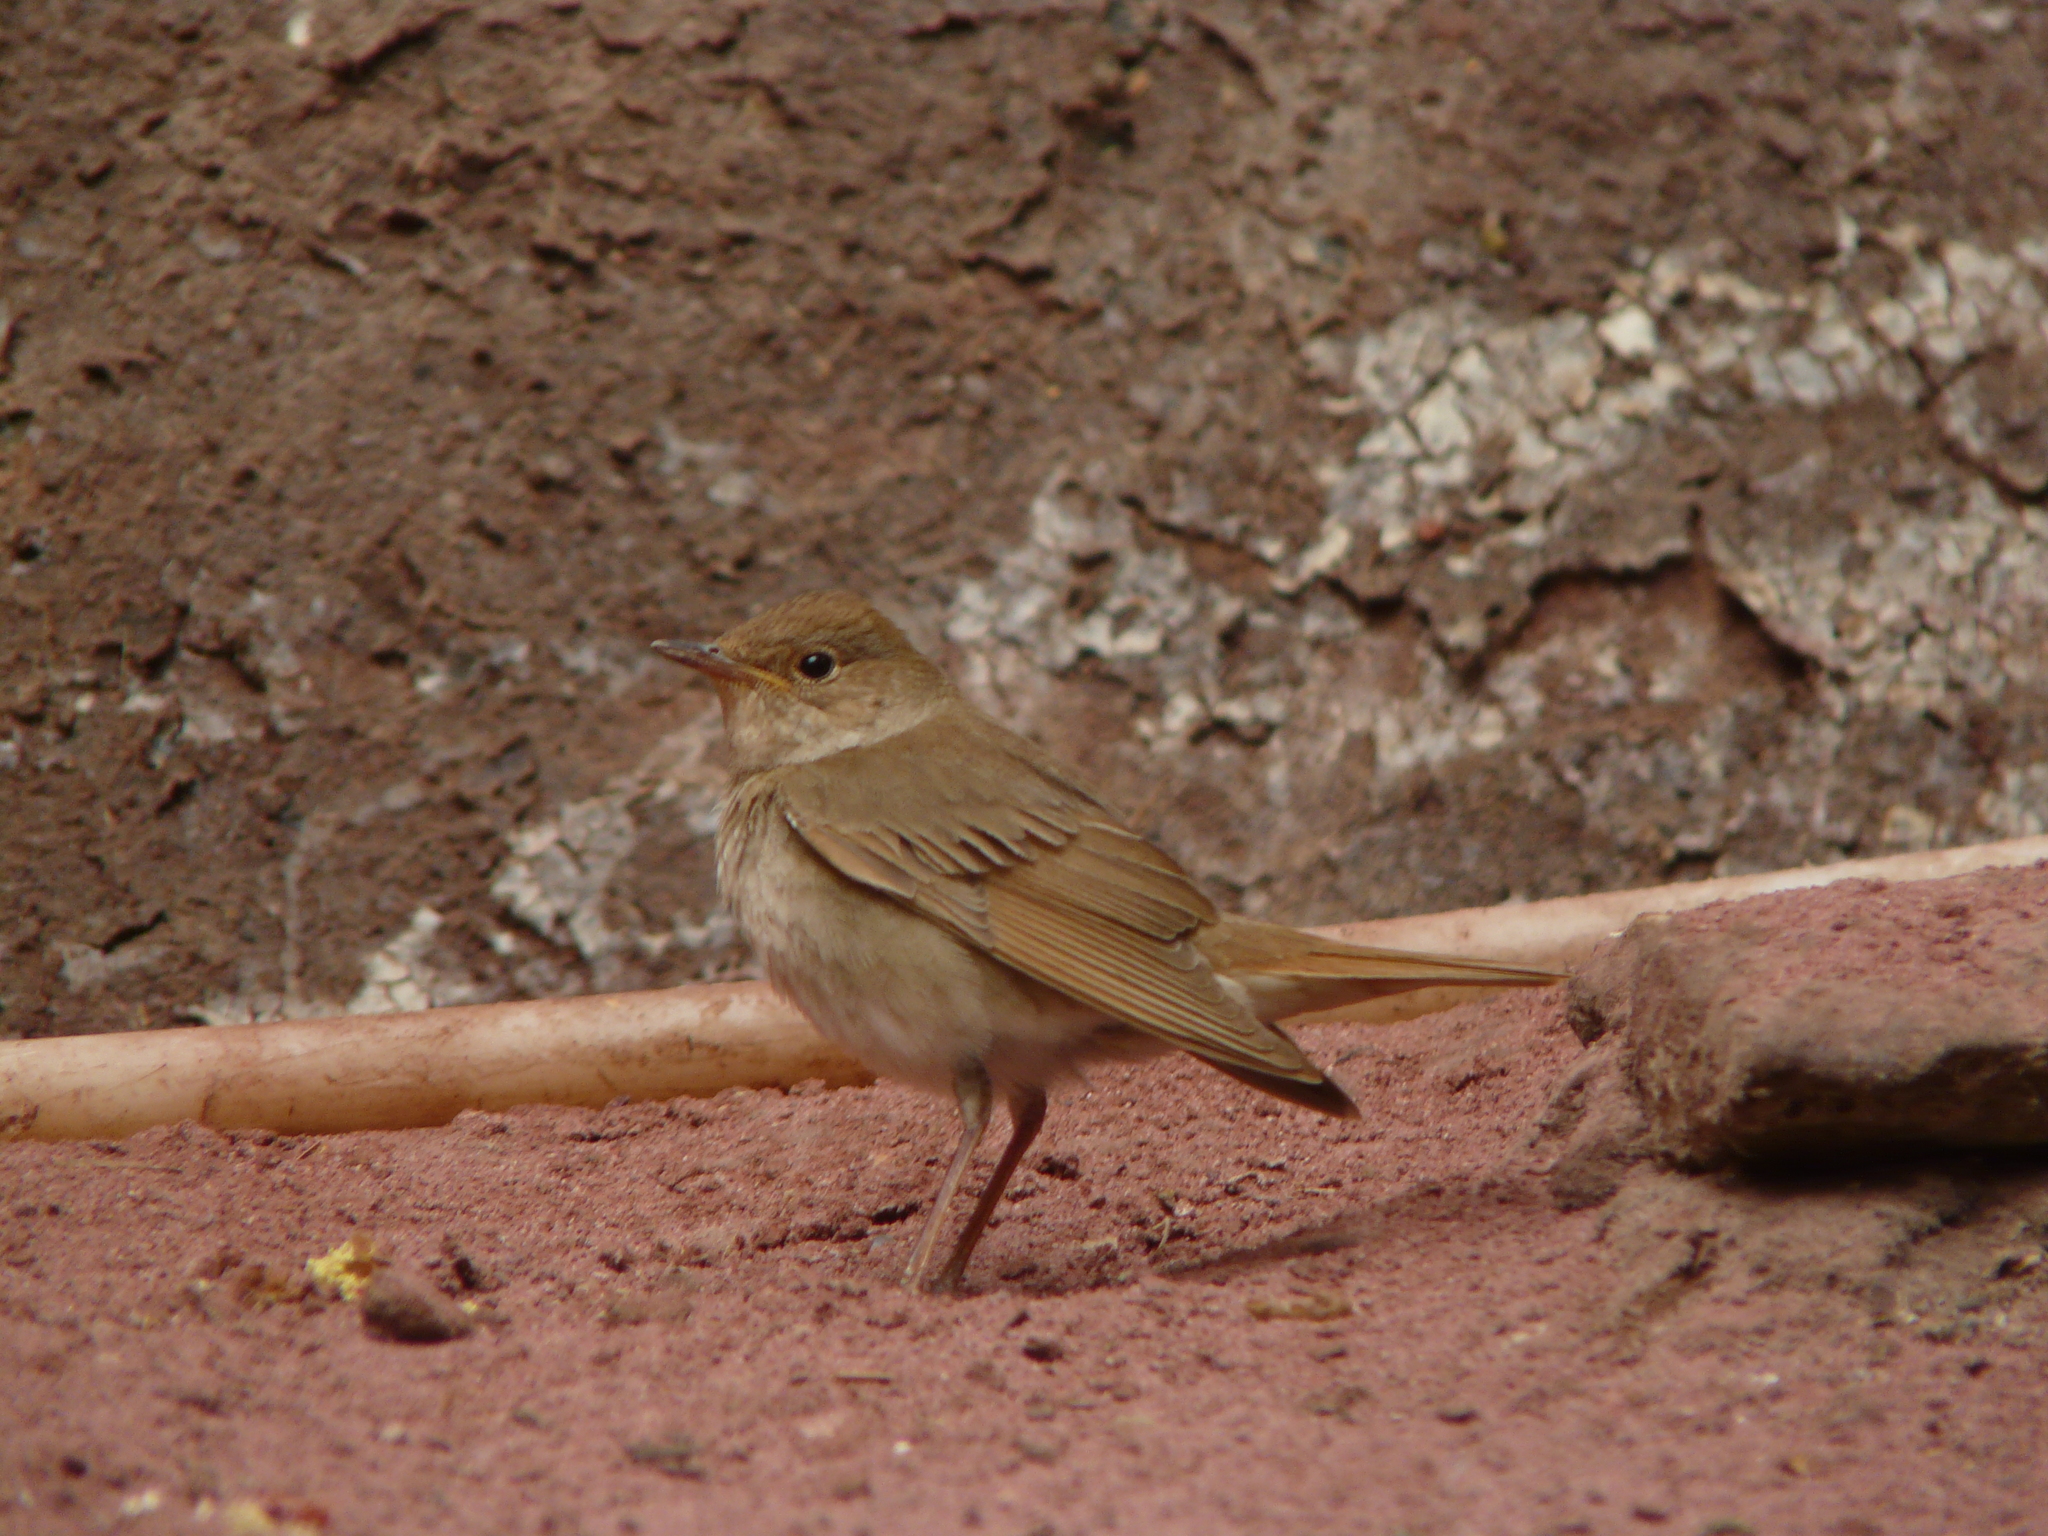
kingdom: Animalia
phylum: Chordata
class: Aves
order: Passeriformes
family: Muscicapidae
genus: Luscinia
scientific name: Luscinia luscinia
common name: Thrush nightingale
